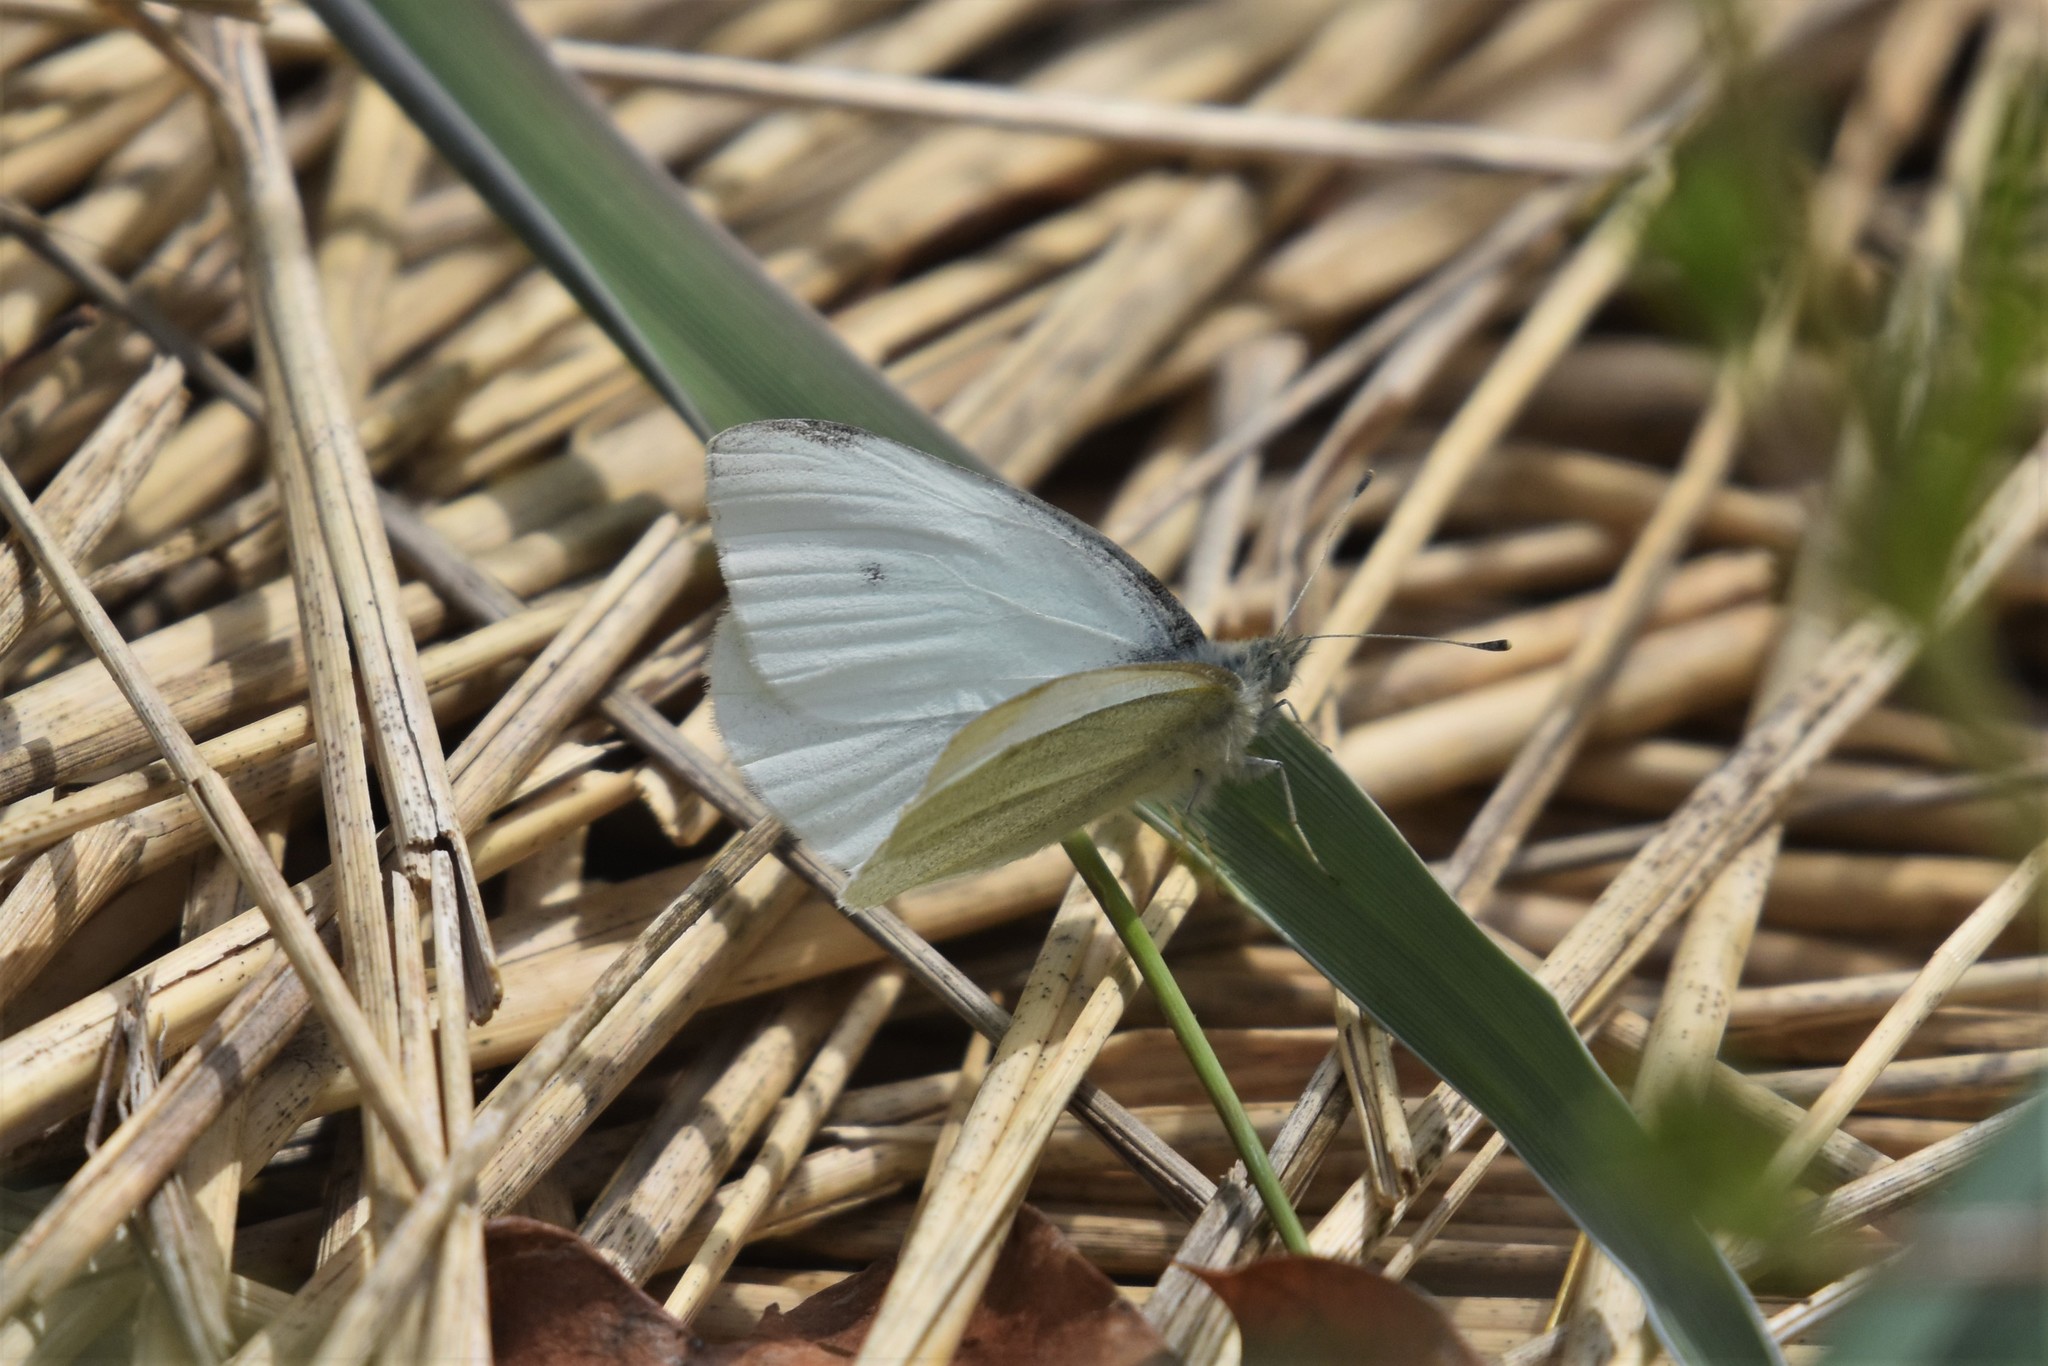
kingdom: Animalia
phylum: Arthropoda
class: Insecta
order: Lepidoptera
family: Pieridae
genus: Pieris
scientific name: Pieris rapae
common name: Small white
